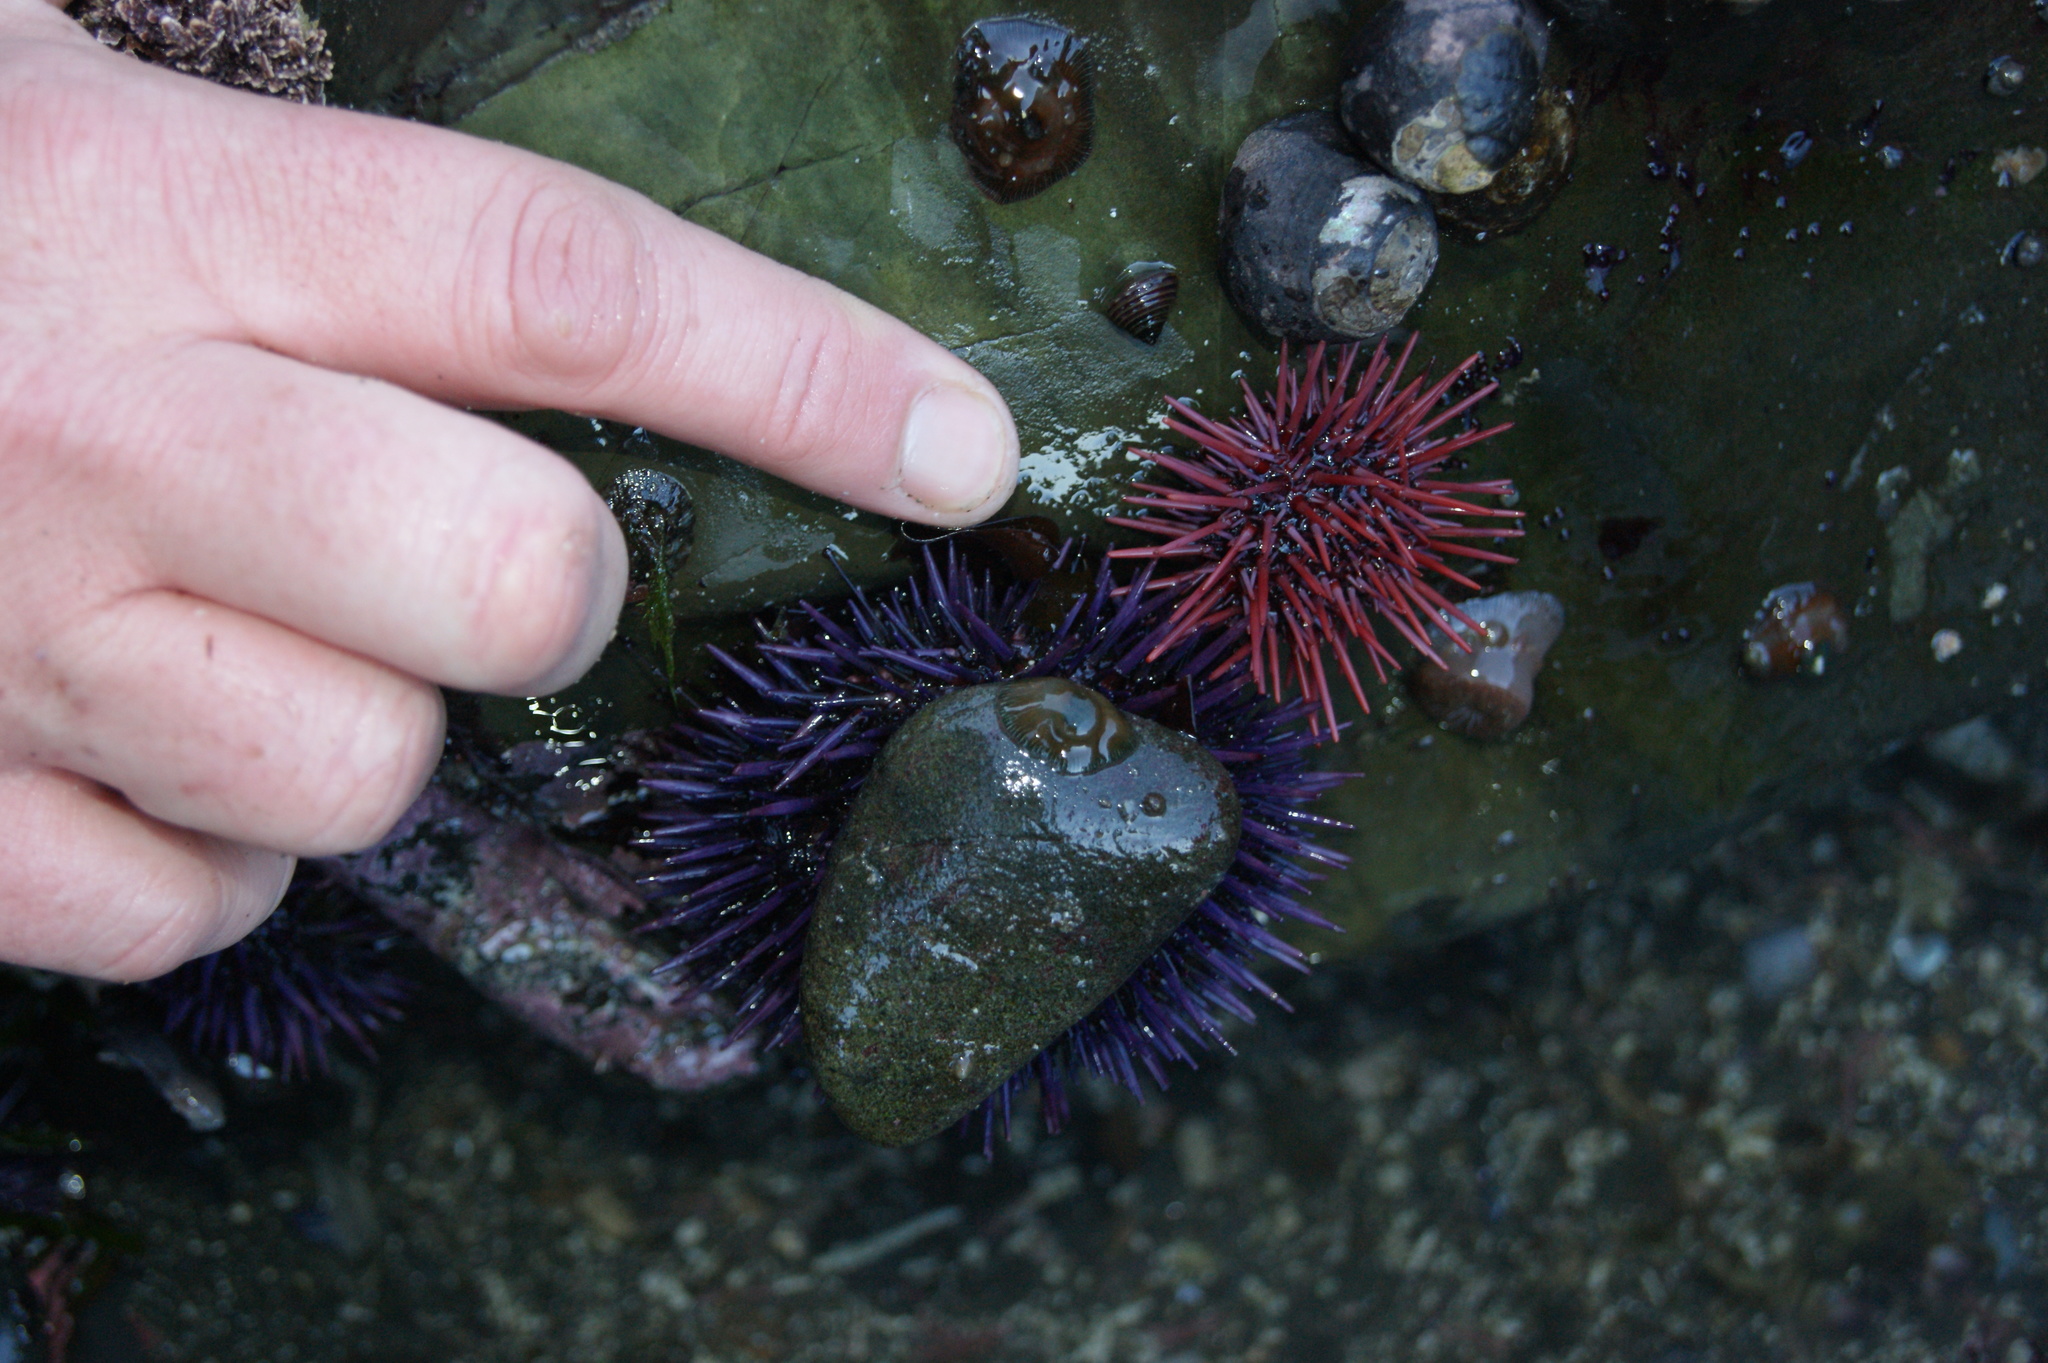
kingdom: Animalia
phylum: Echinodermata
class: Echinoidea
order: Camarodonta
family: Strongylocentrotidae
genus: Mesocentrotus
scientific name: Mesocentrotus franciscanus
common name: Red sea urchin
